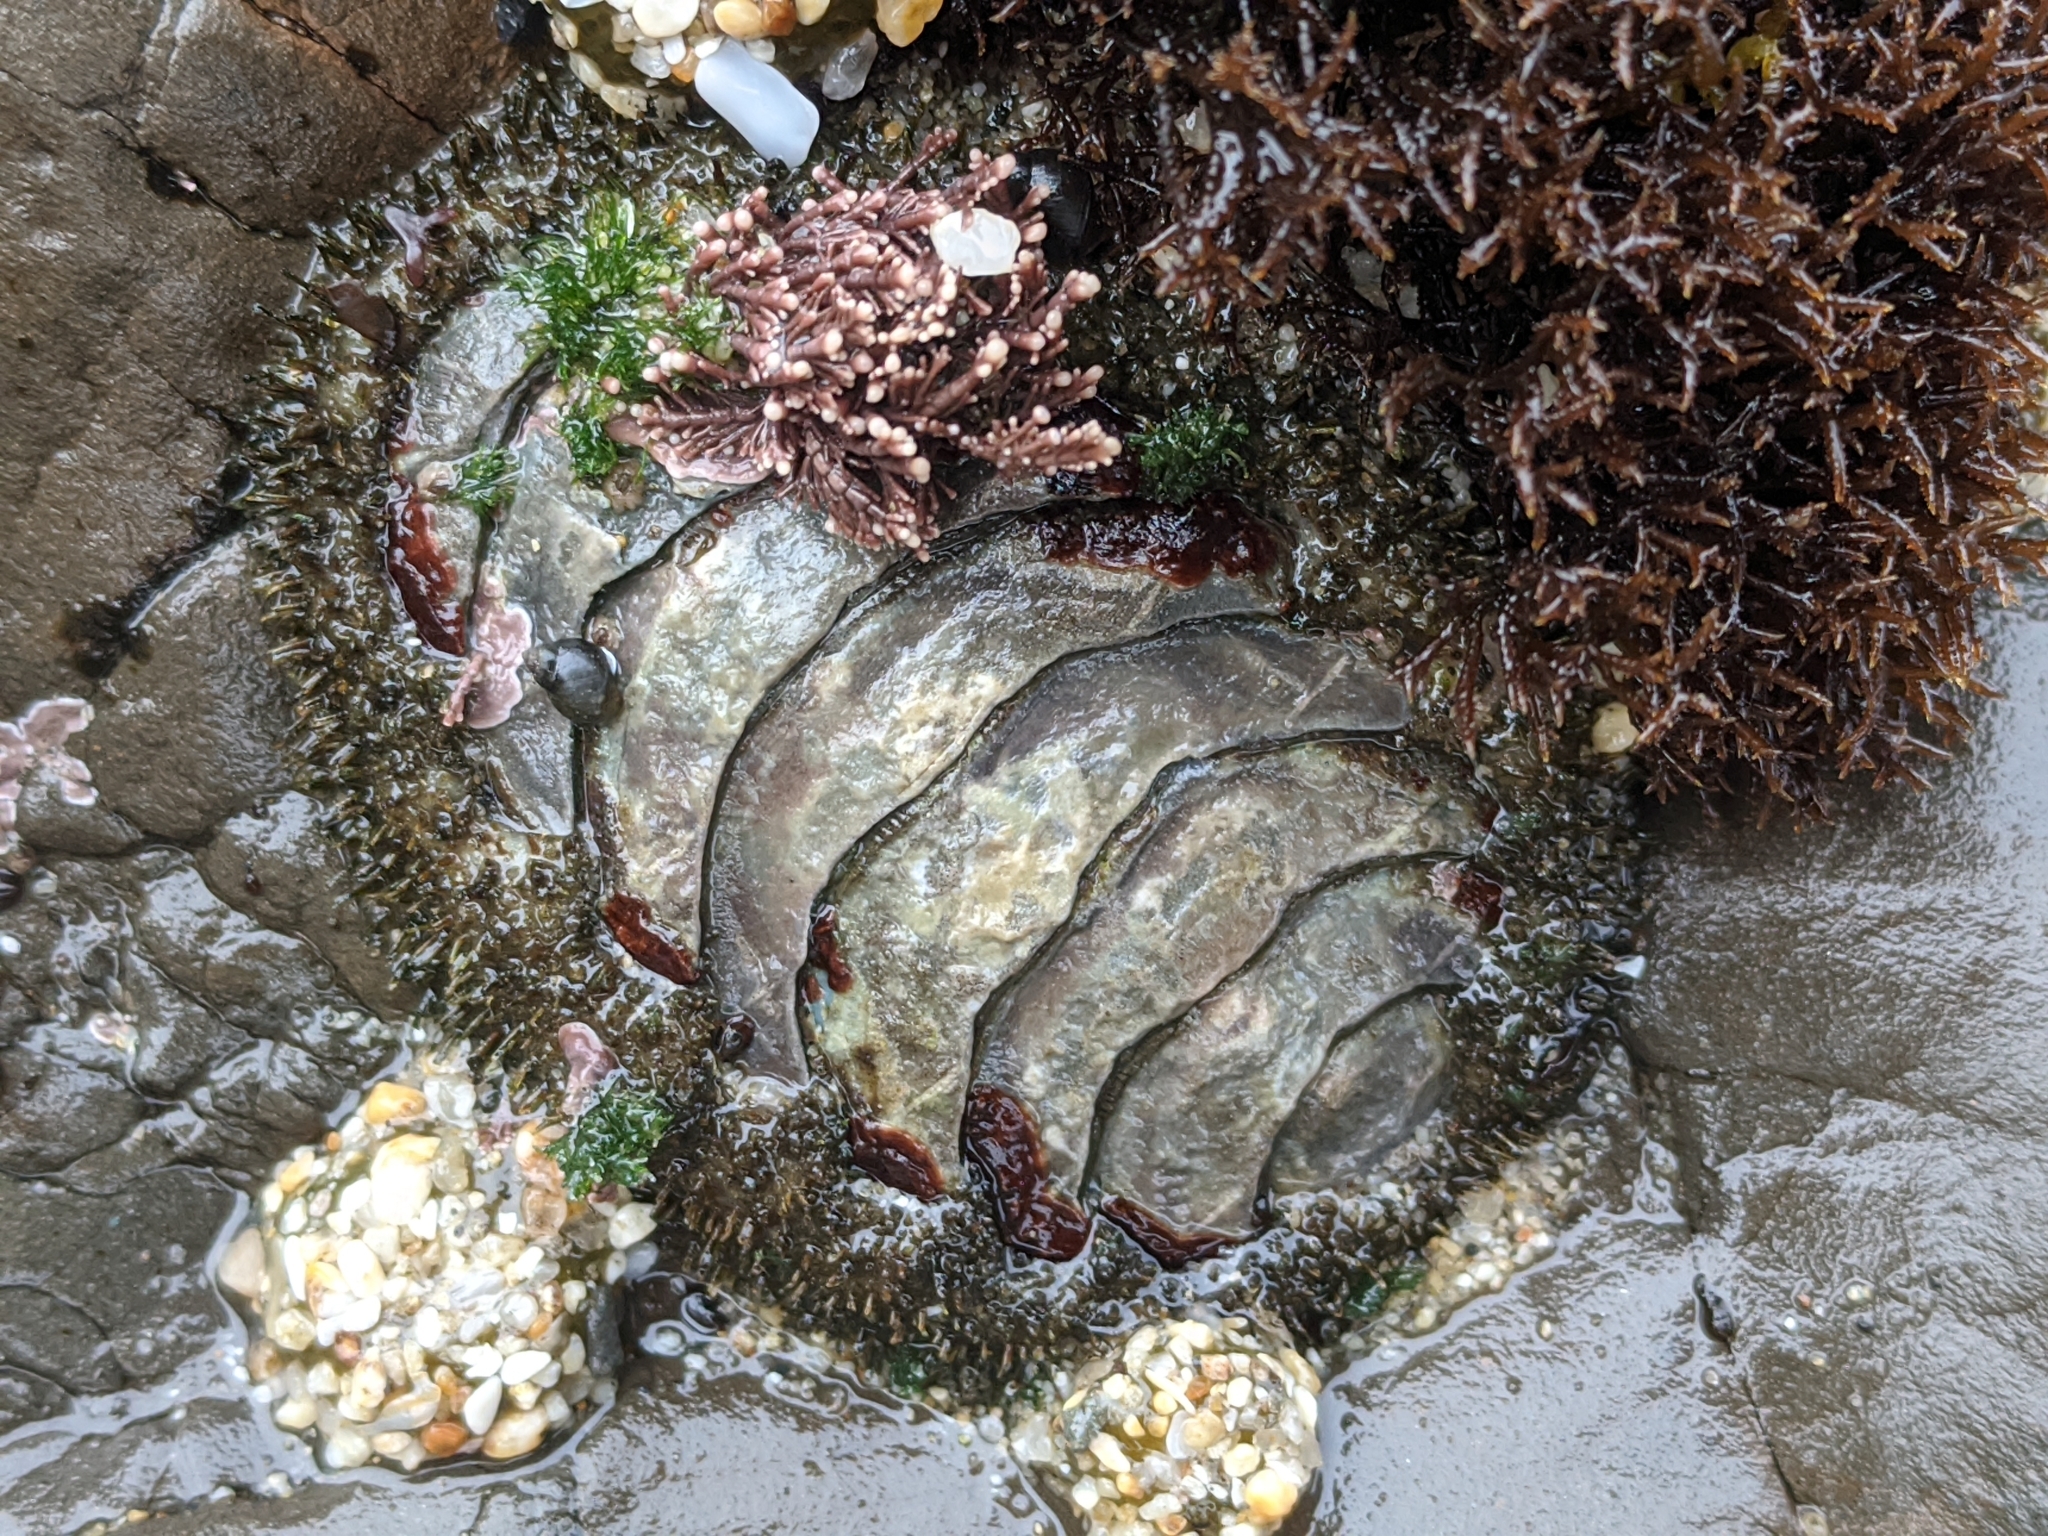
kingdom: Animalia
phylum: Mollusca
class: Polyplacophora
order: Chitonida
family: Mopaliidae
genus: Mopalia
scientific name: Mopalia muscosa
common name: Mossy chiton
